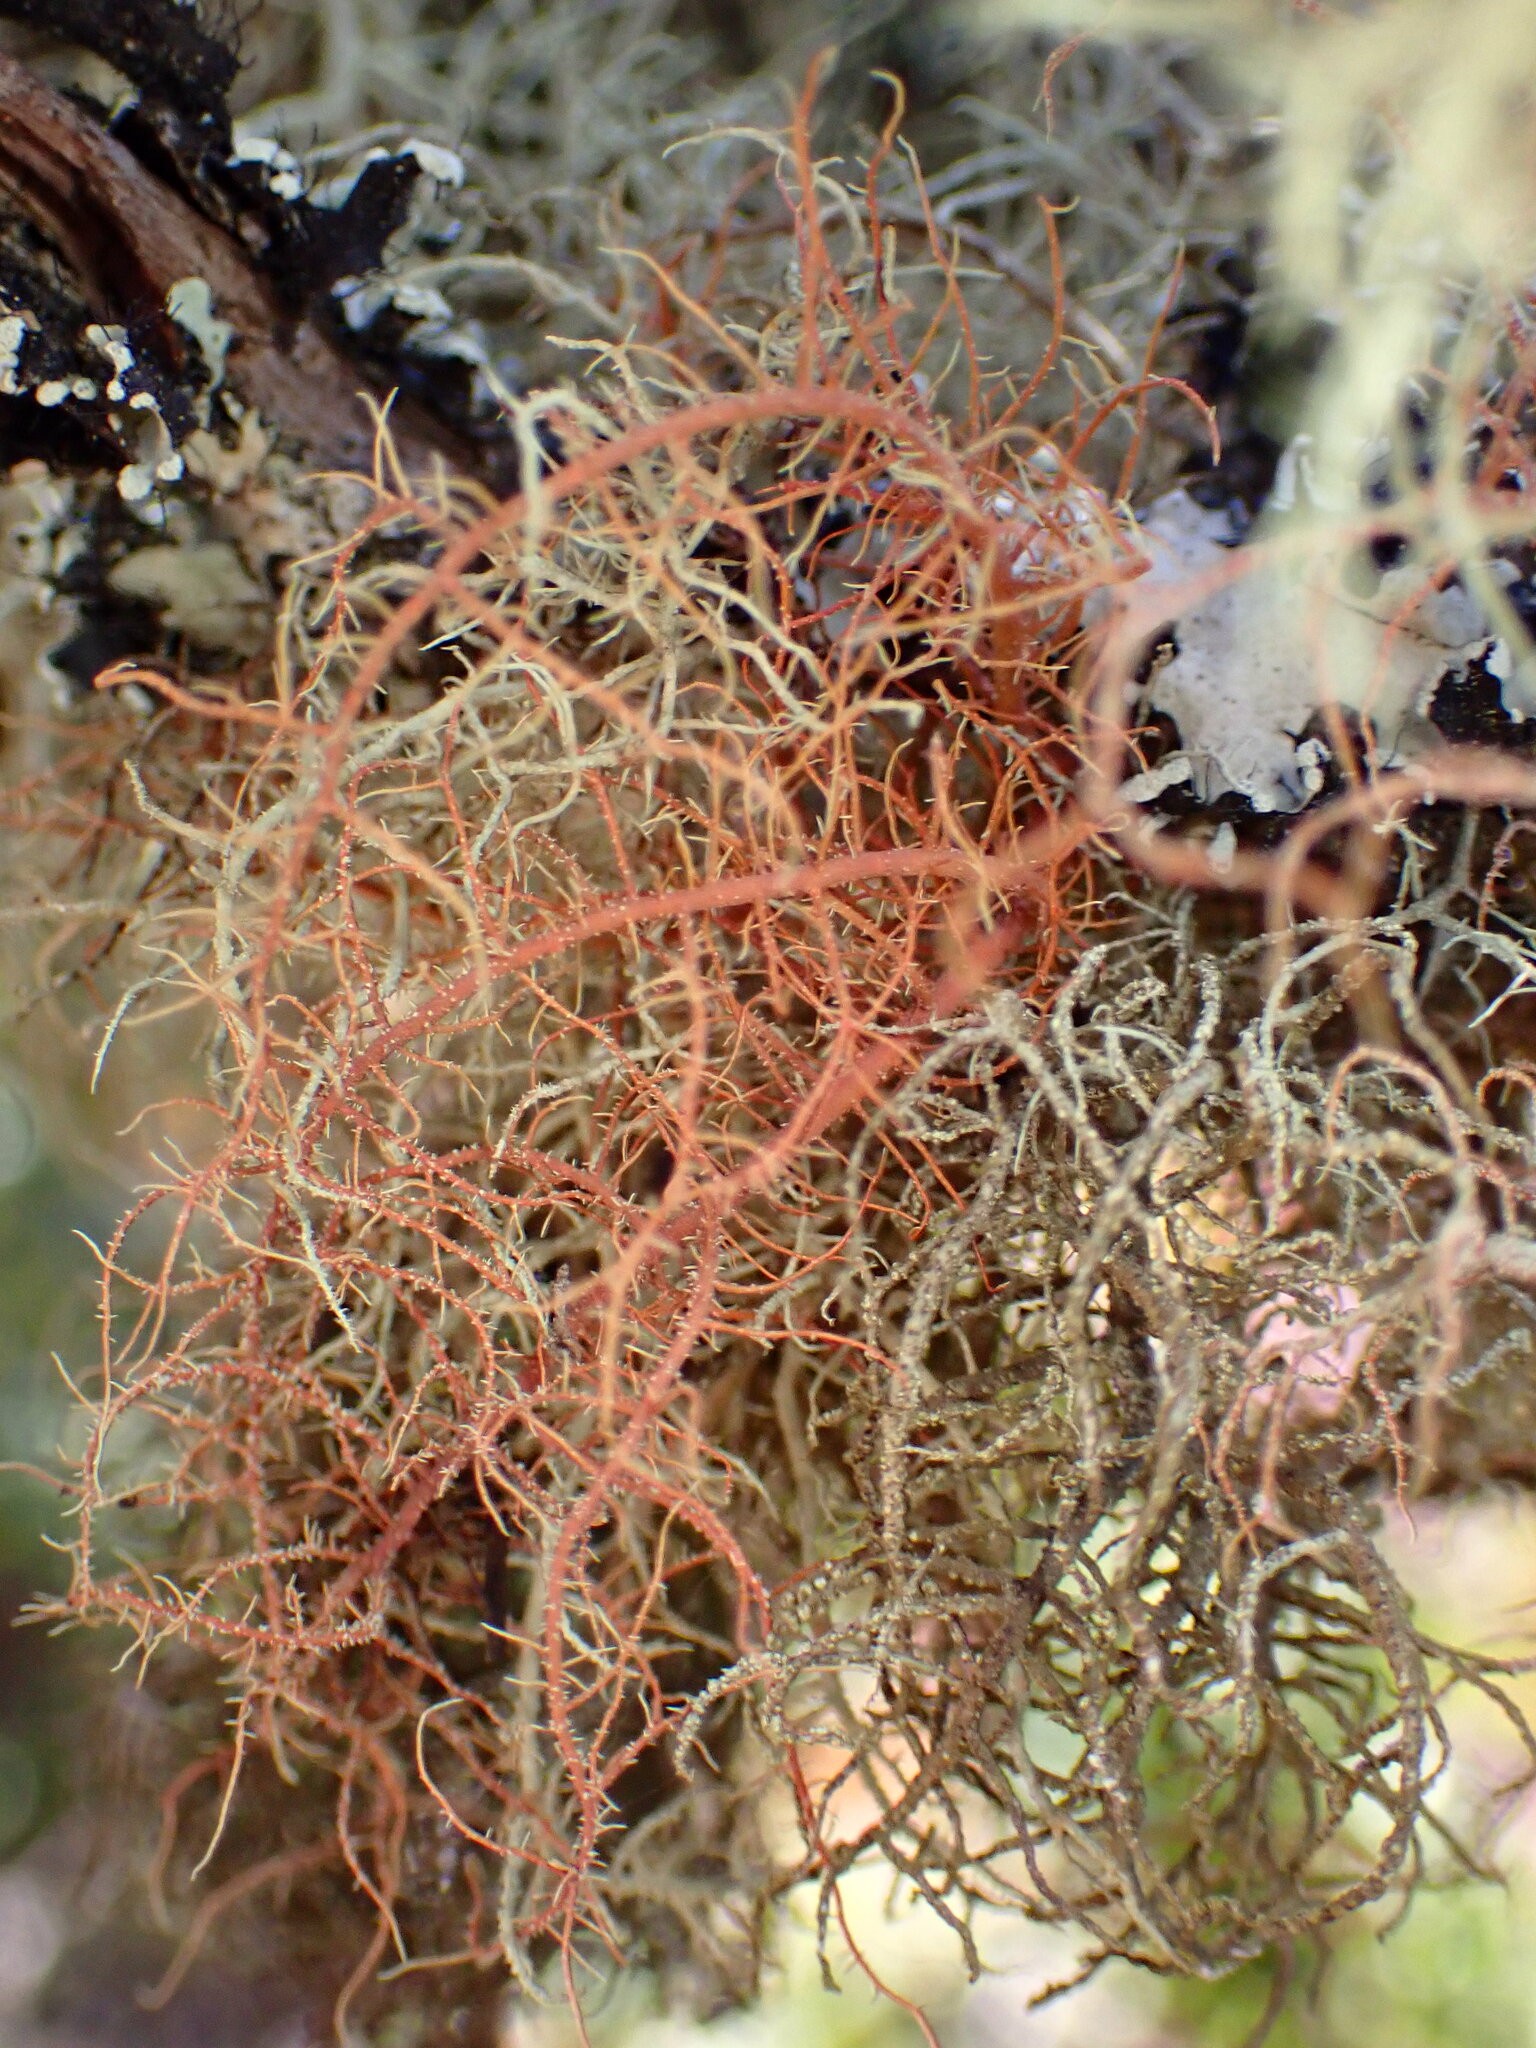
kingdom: Fungi
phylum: Ascomycota
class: Lecanoromycetes
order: Lecanorales
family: Parmeliaceae
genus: Usnea
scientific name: Usnea rubicunda
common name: Red beard lichen
